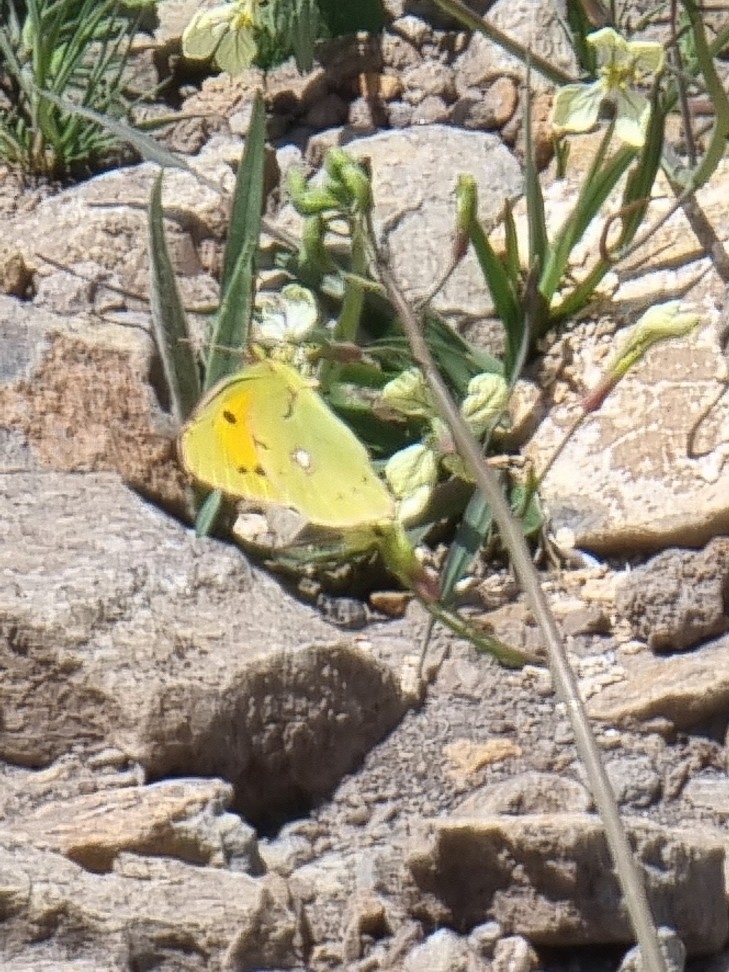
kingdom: Animalia
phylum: Arthropoda
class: Insecta
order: Lepidoptera
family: Pieridae
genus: Colias
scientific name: Colias croceus
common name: Clouded yellow
